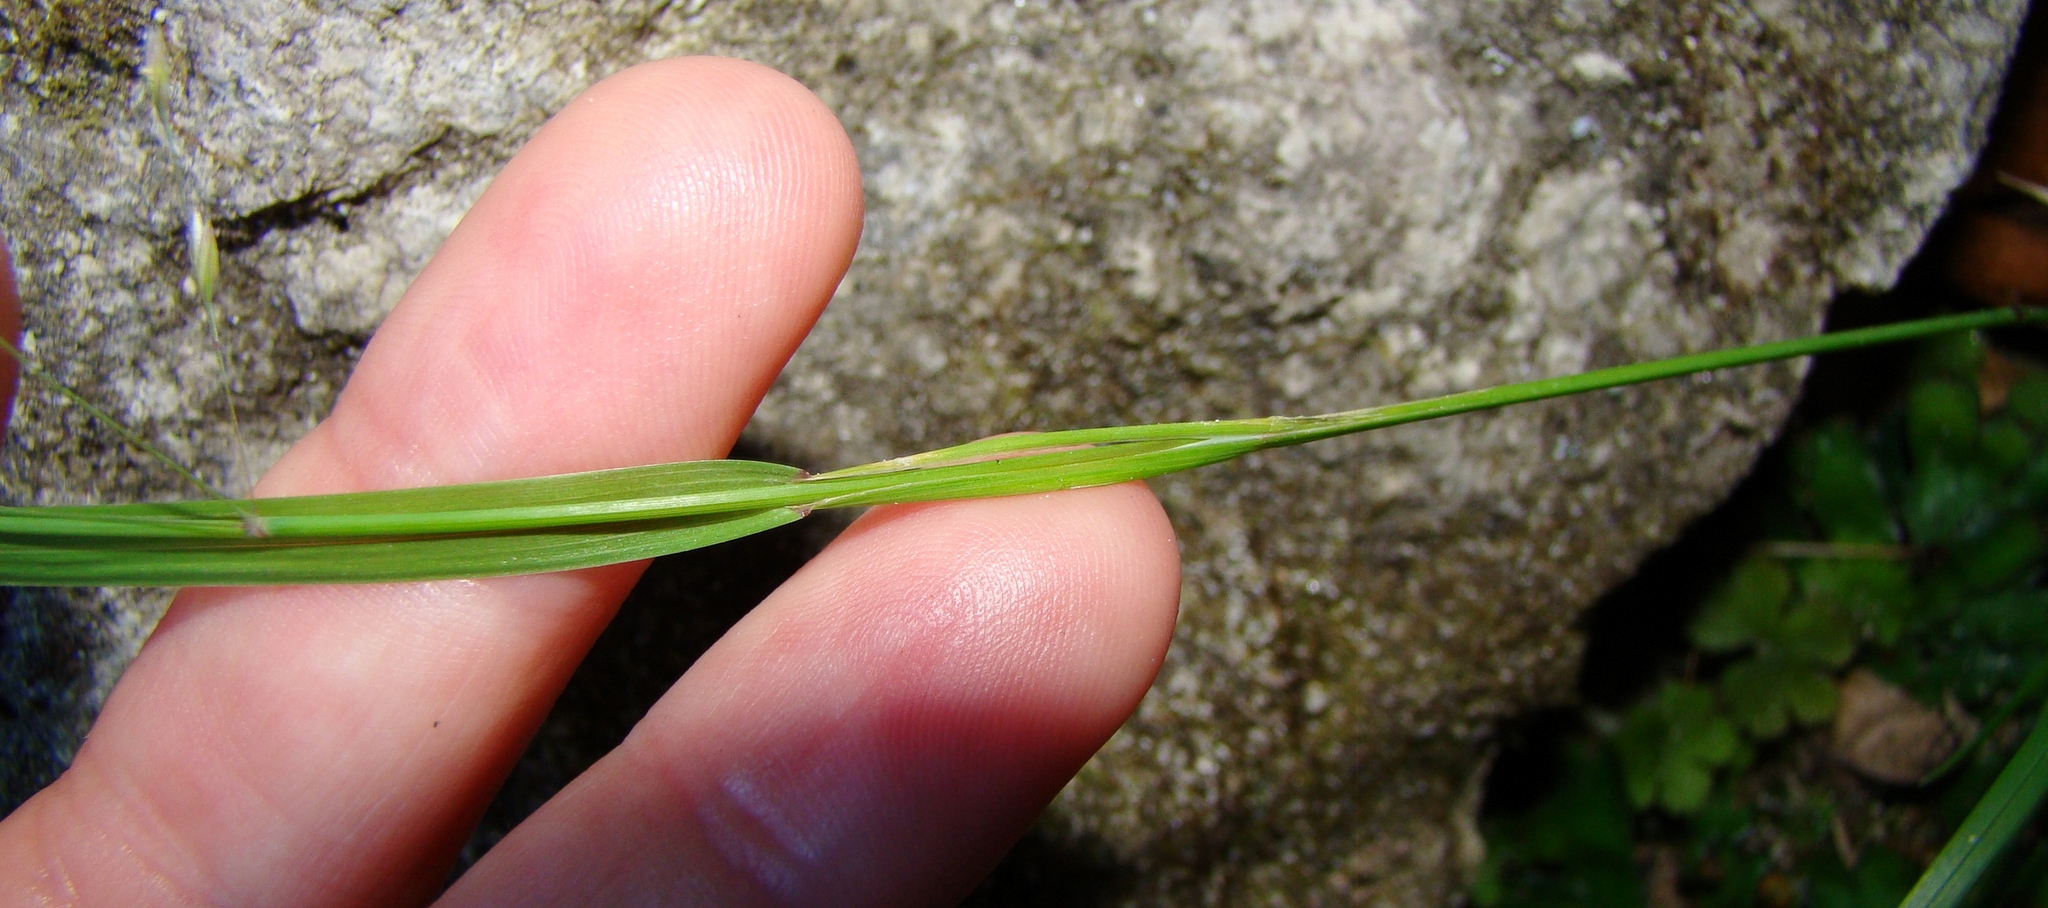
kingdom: Plantae
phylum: Tracheophyta
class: Liliopsida
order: Poales
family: Poaceae
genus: Poa
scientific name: Poa
